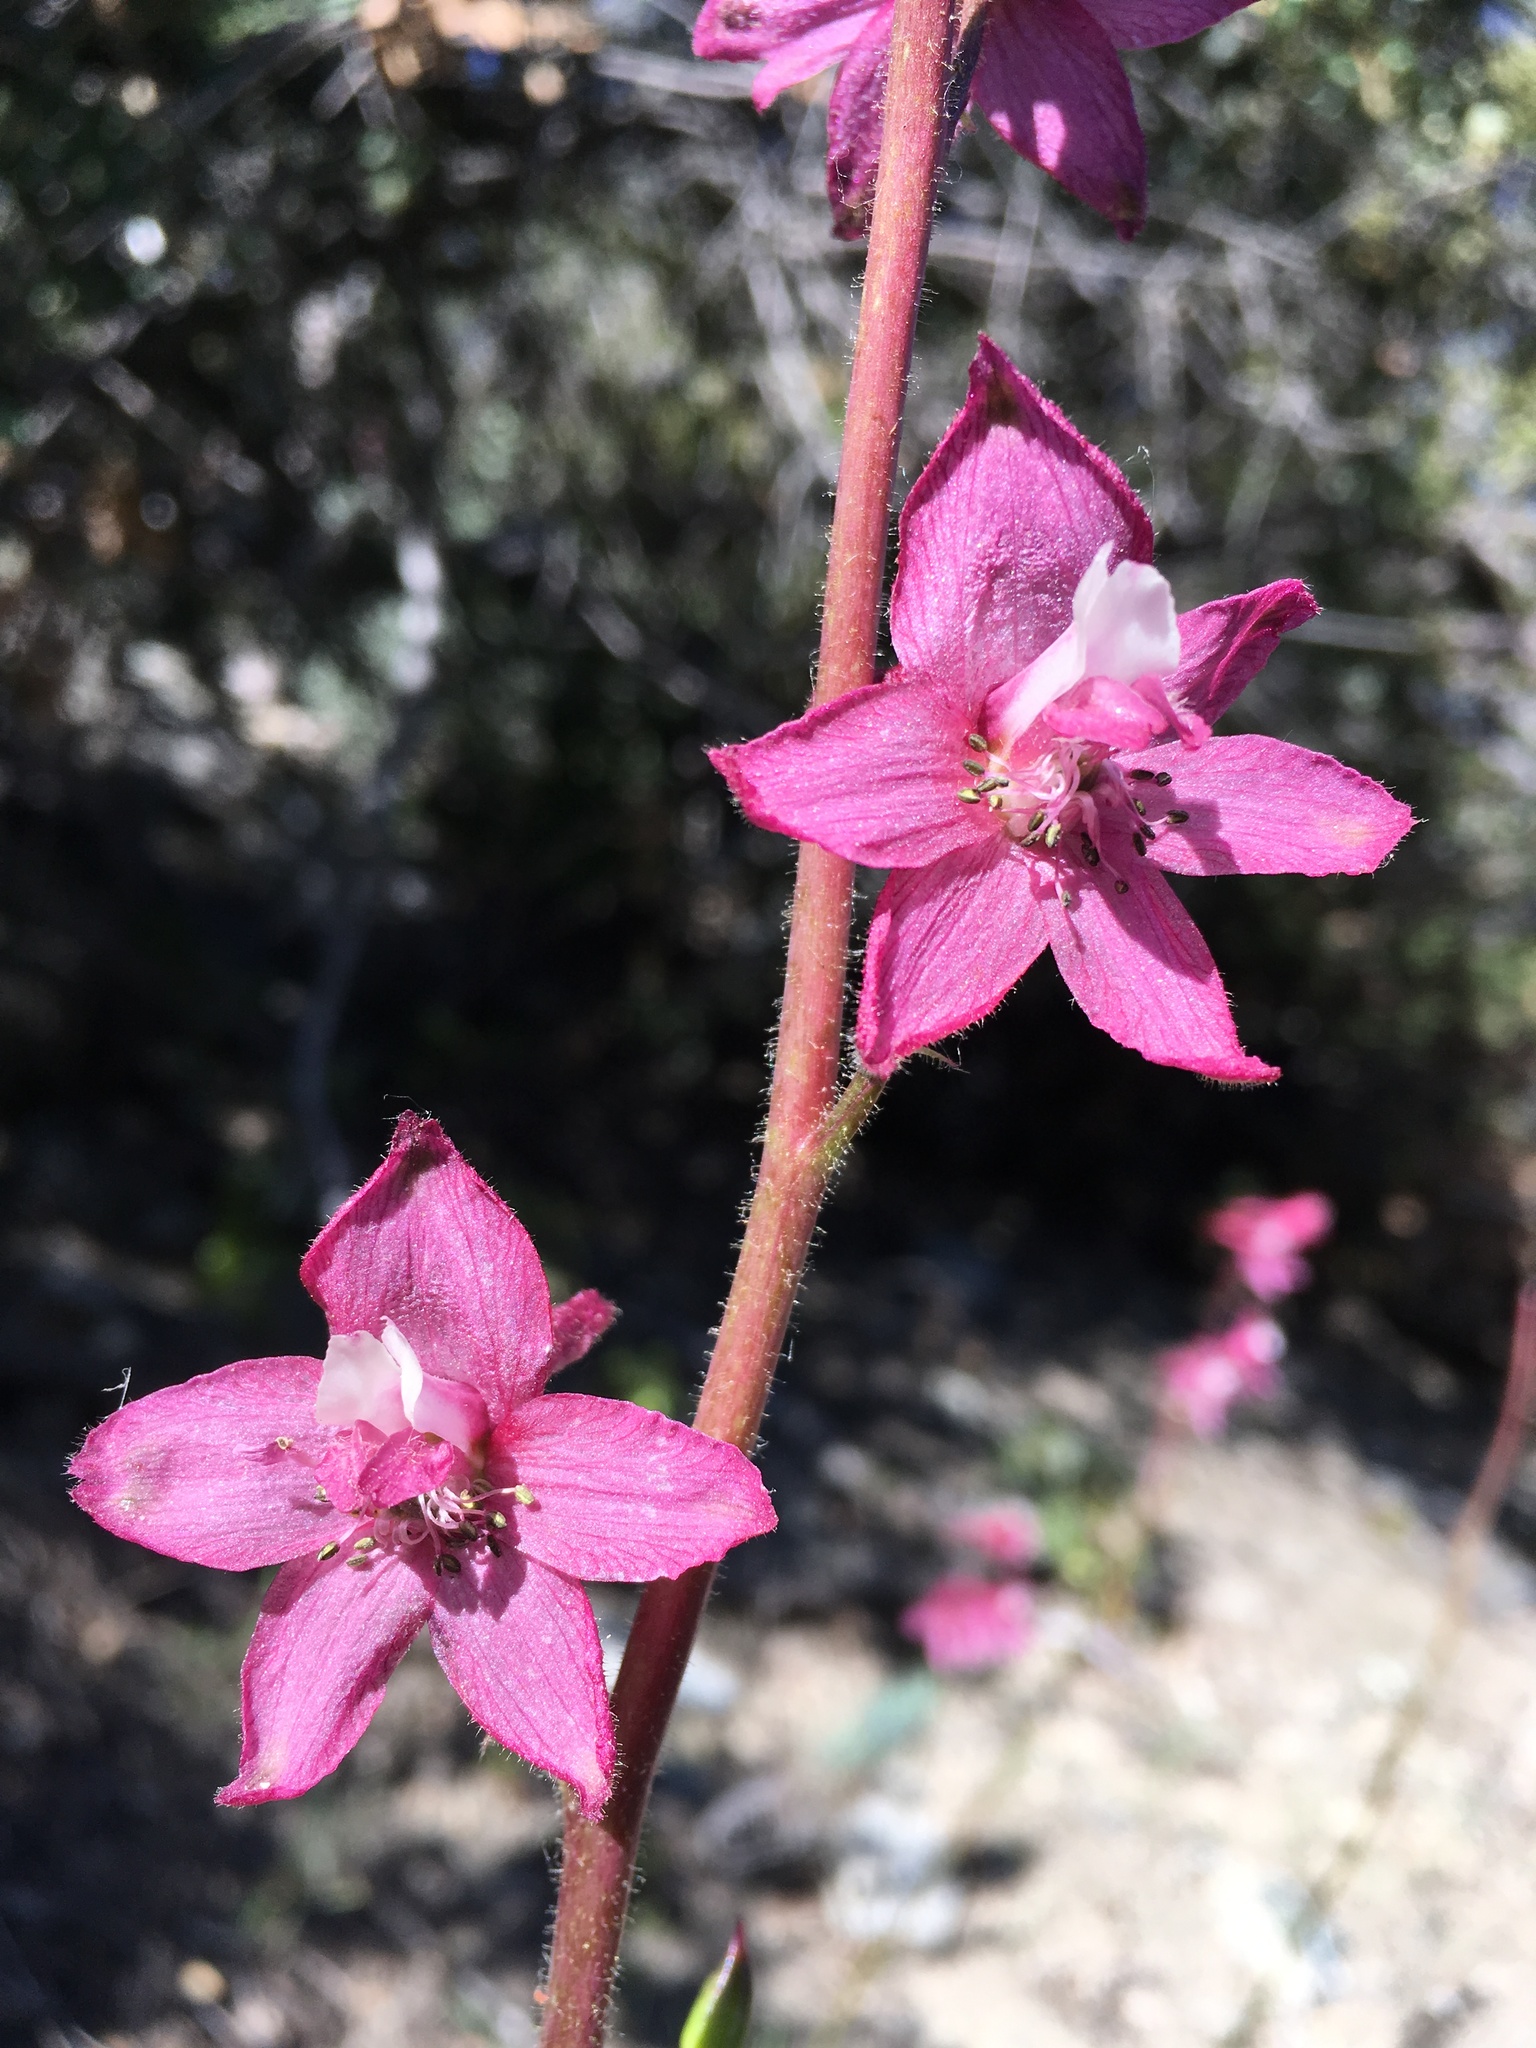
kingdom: Plantae
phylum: Tracheophyta
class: Magnoliopsida
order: Ranunculales
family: Ranunculaceae
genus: Delphinium
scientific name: Delphinium purpusii
